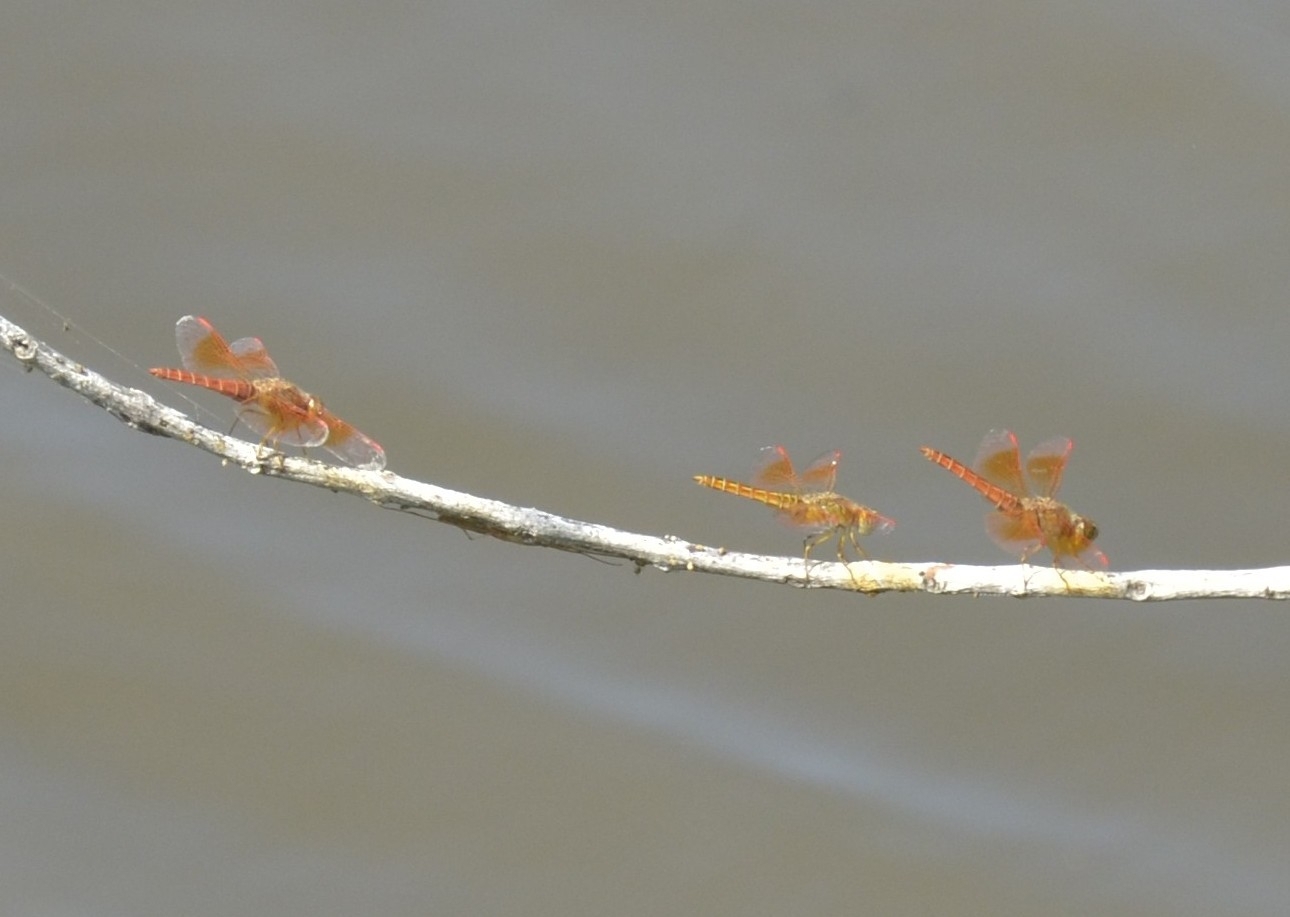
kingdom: Animalia
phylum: Arthropoda
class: Insecta
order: Odonata
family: Libellulidae
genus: Brachythemis
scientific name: Brachythemis contaminata
